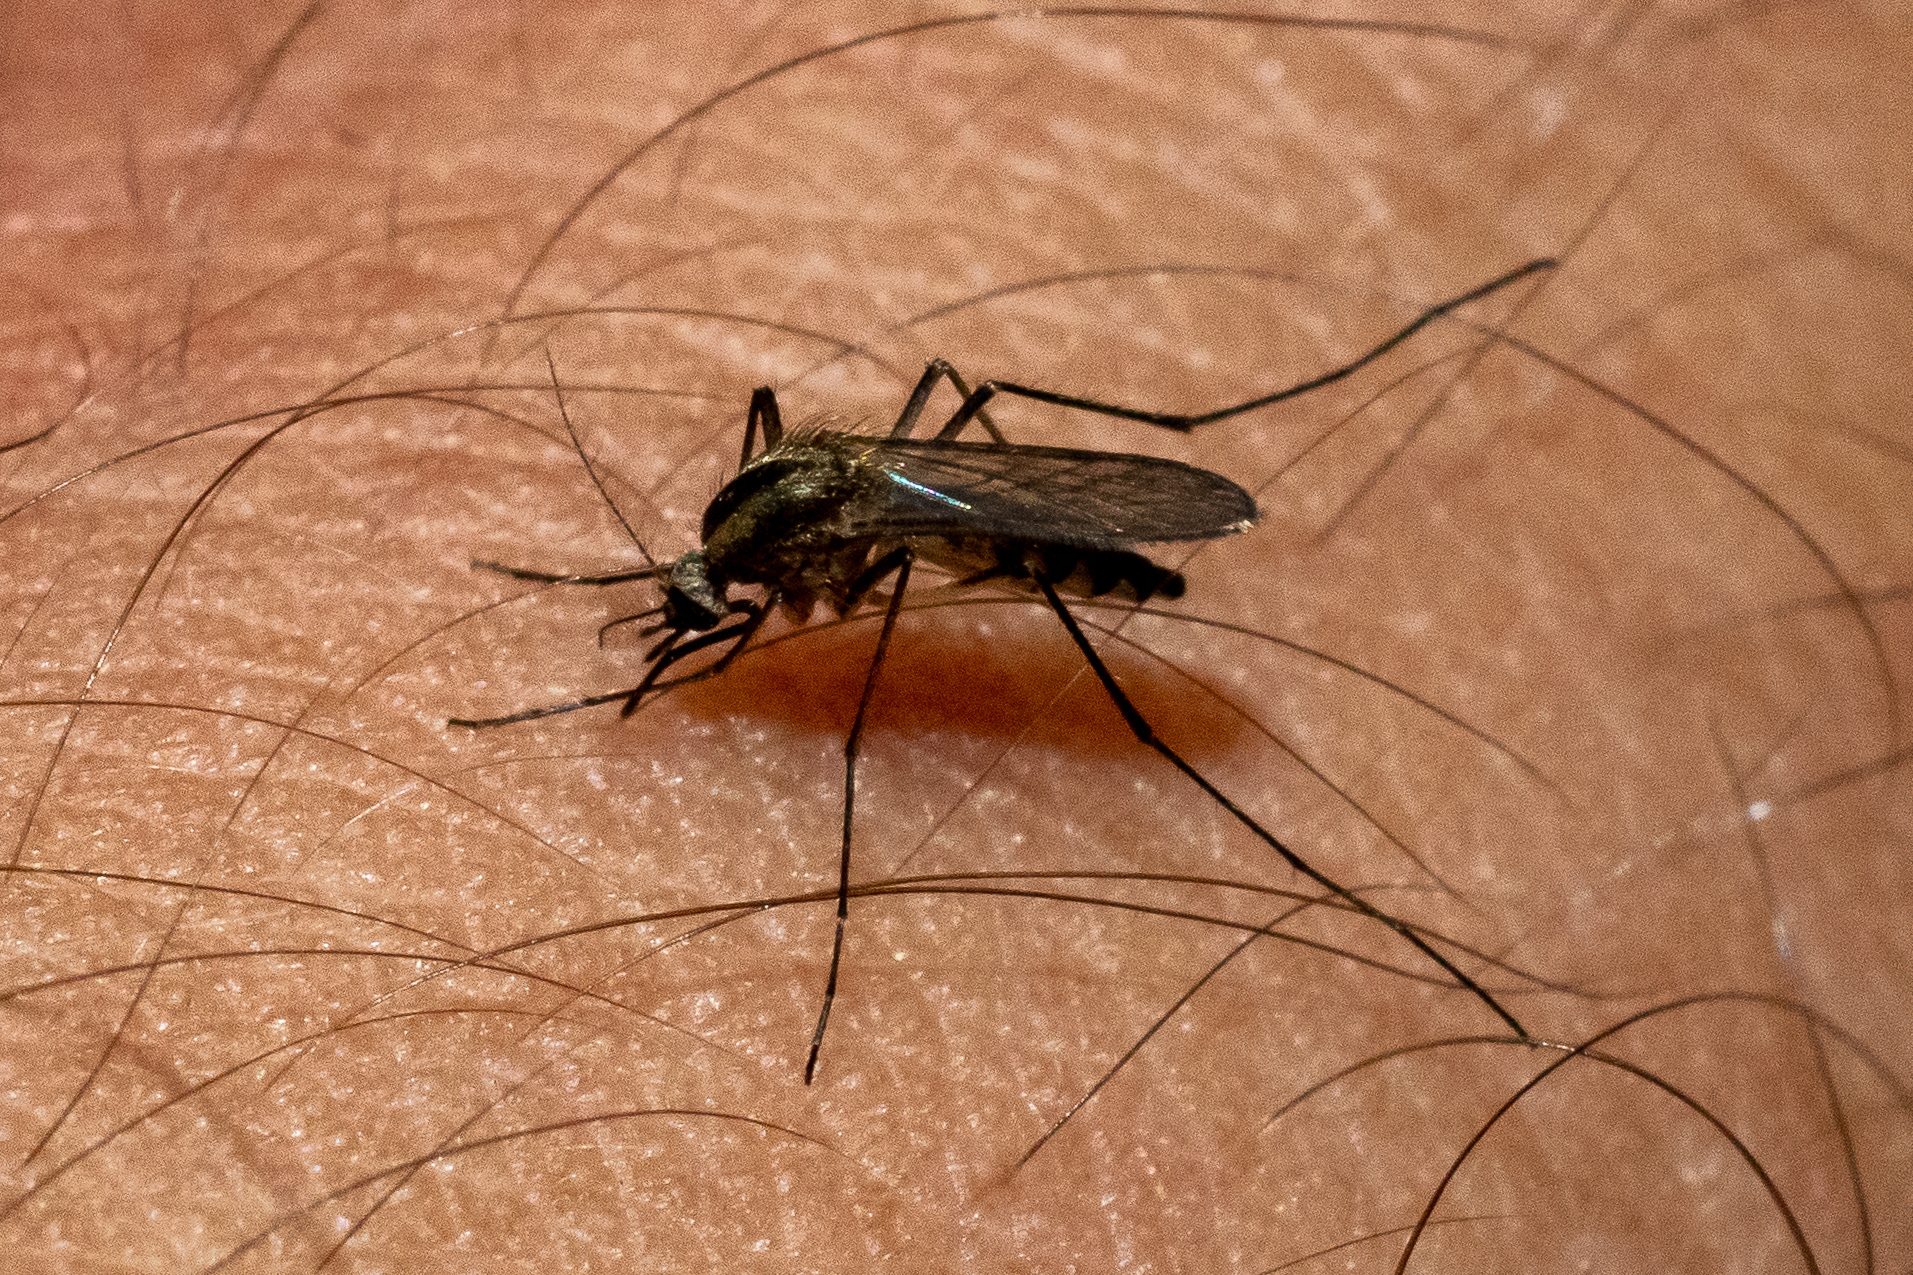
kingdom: Animalia
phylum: Arthropoda
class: Insecta
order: Diptera
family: Culicidae
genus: Aedes
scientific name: Aedes trivittatus
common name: Plains floodwater mosquito
